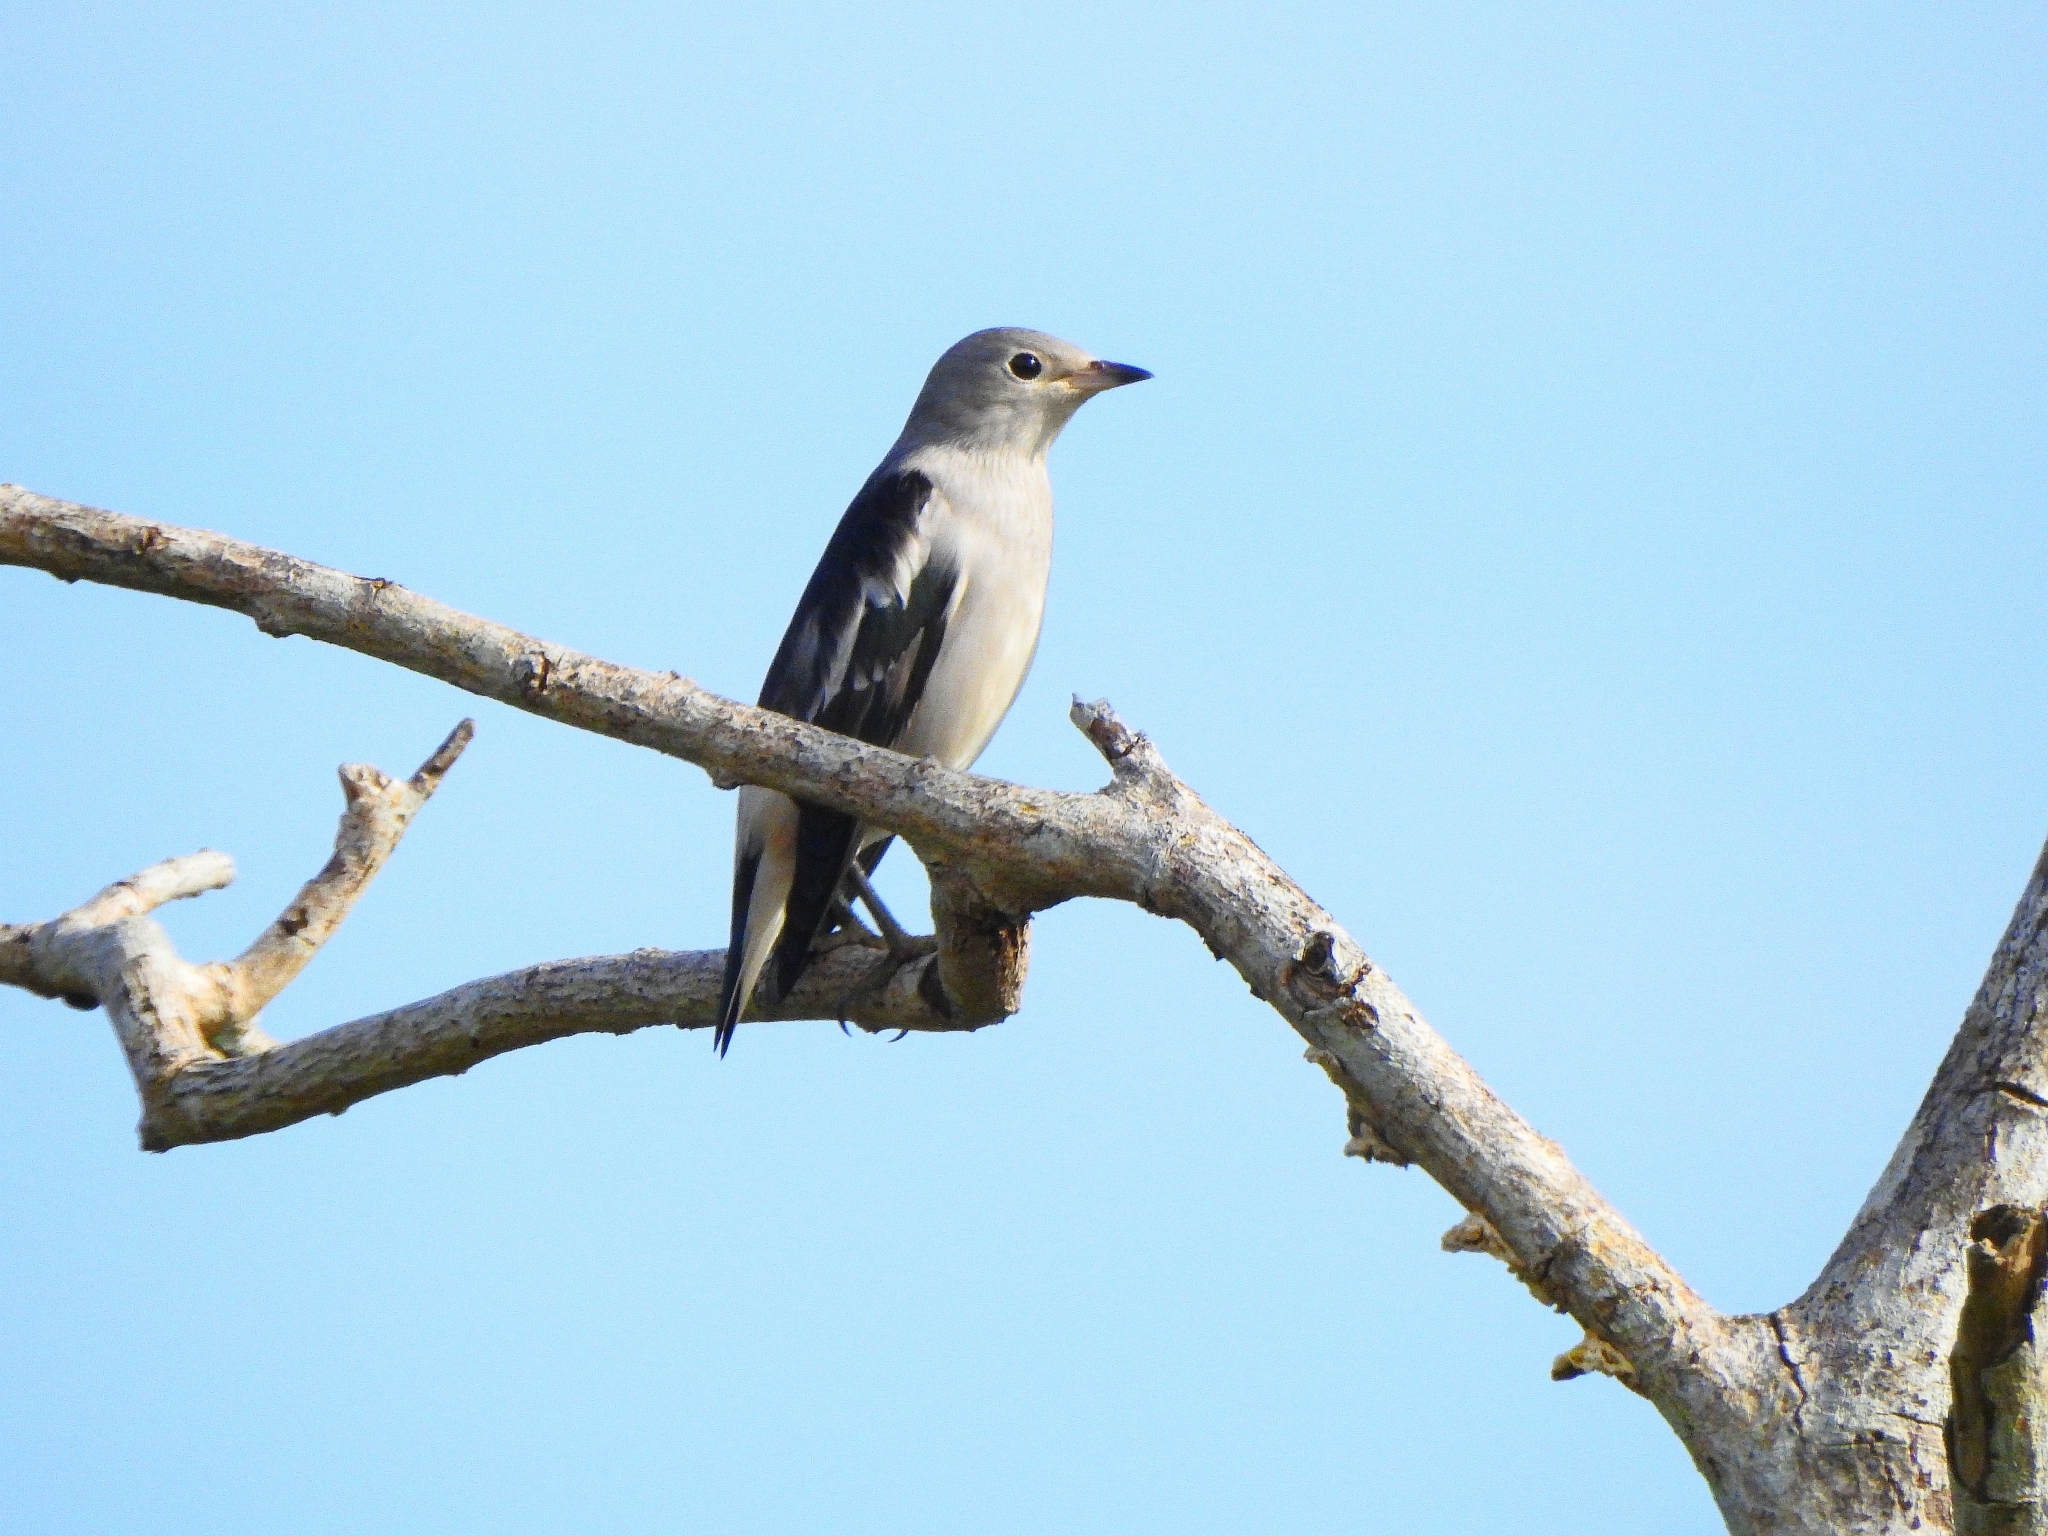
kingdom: Animalia
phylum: Chordata
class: Aves
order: Passeriformes
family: Sturnidae
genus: Agropsar
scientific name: Agropsar sturninus
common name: Daurian starling
